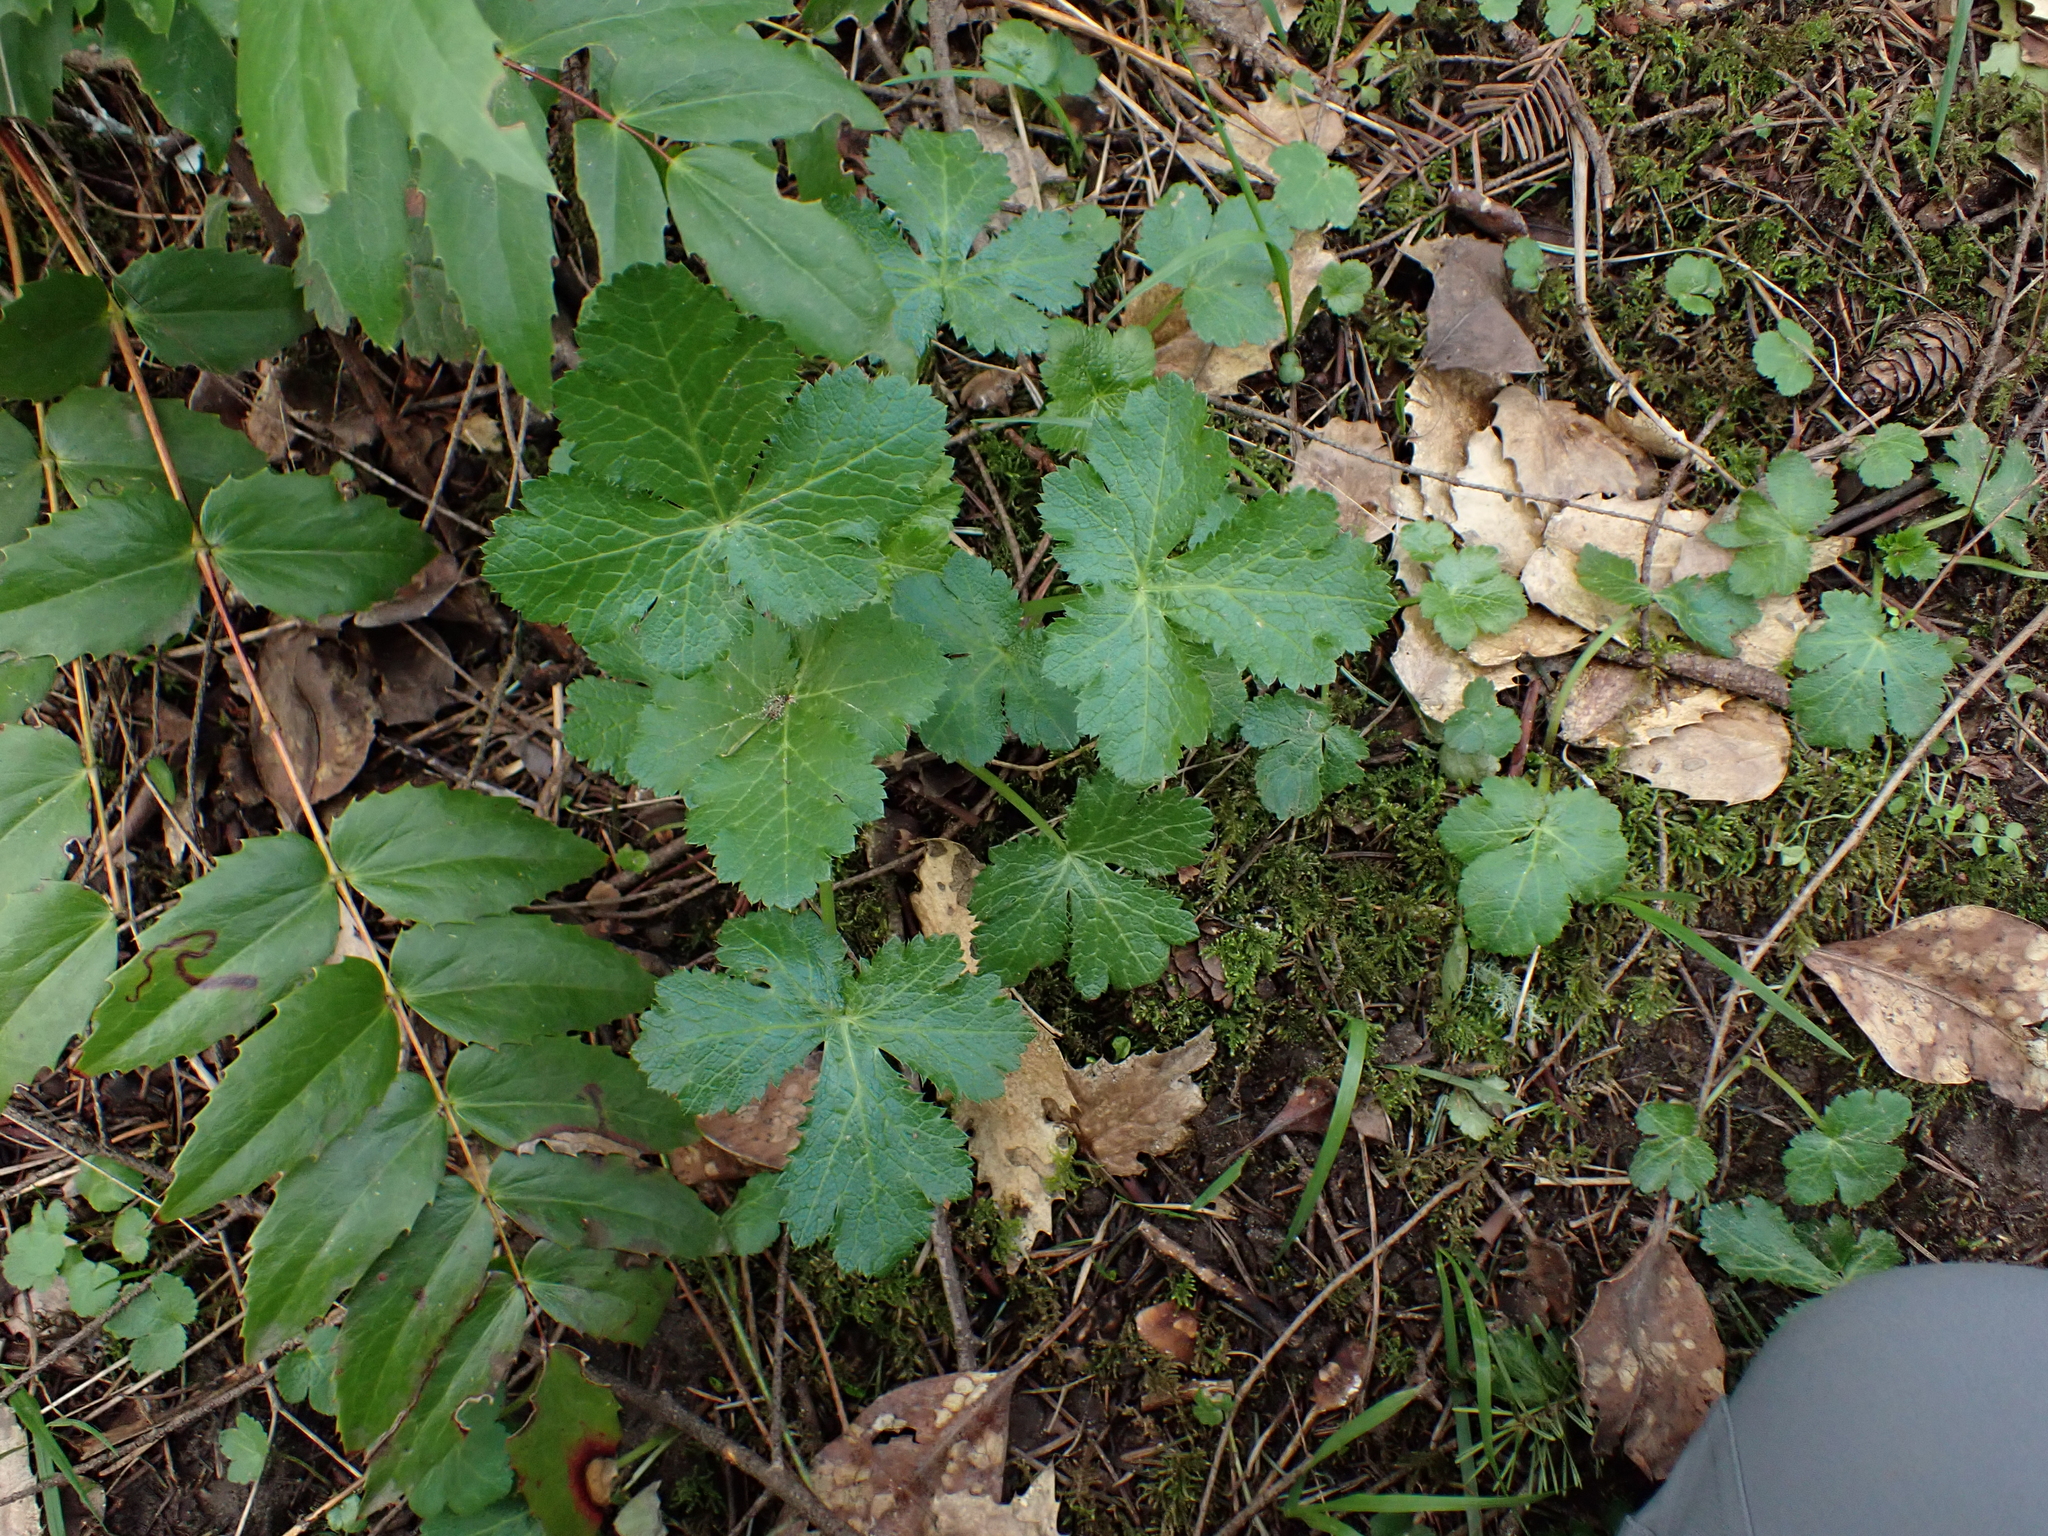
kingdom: Plantae
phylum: Tracheophyta
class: Magnoliopsida
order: Apiales
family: Apiaceae
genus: Sanicula
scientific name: Sanicula crassicaulis
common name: Western snakeroot
